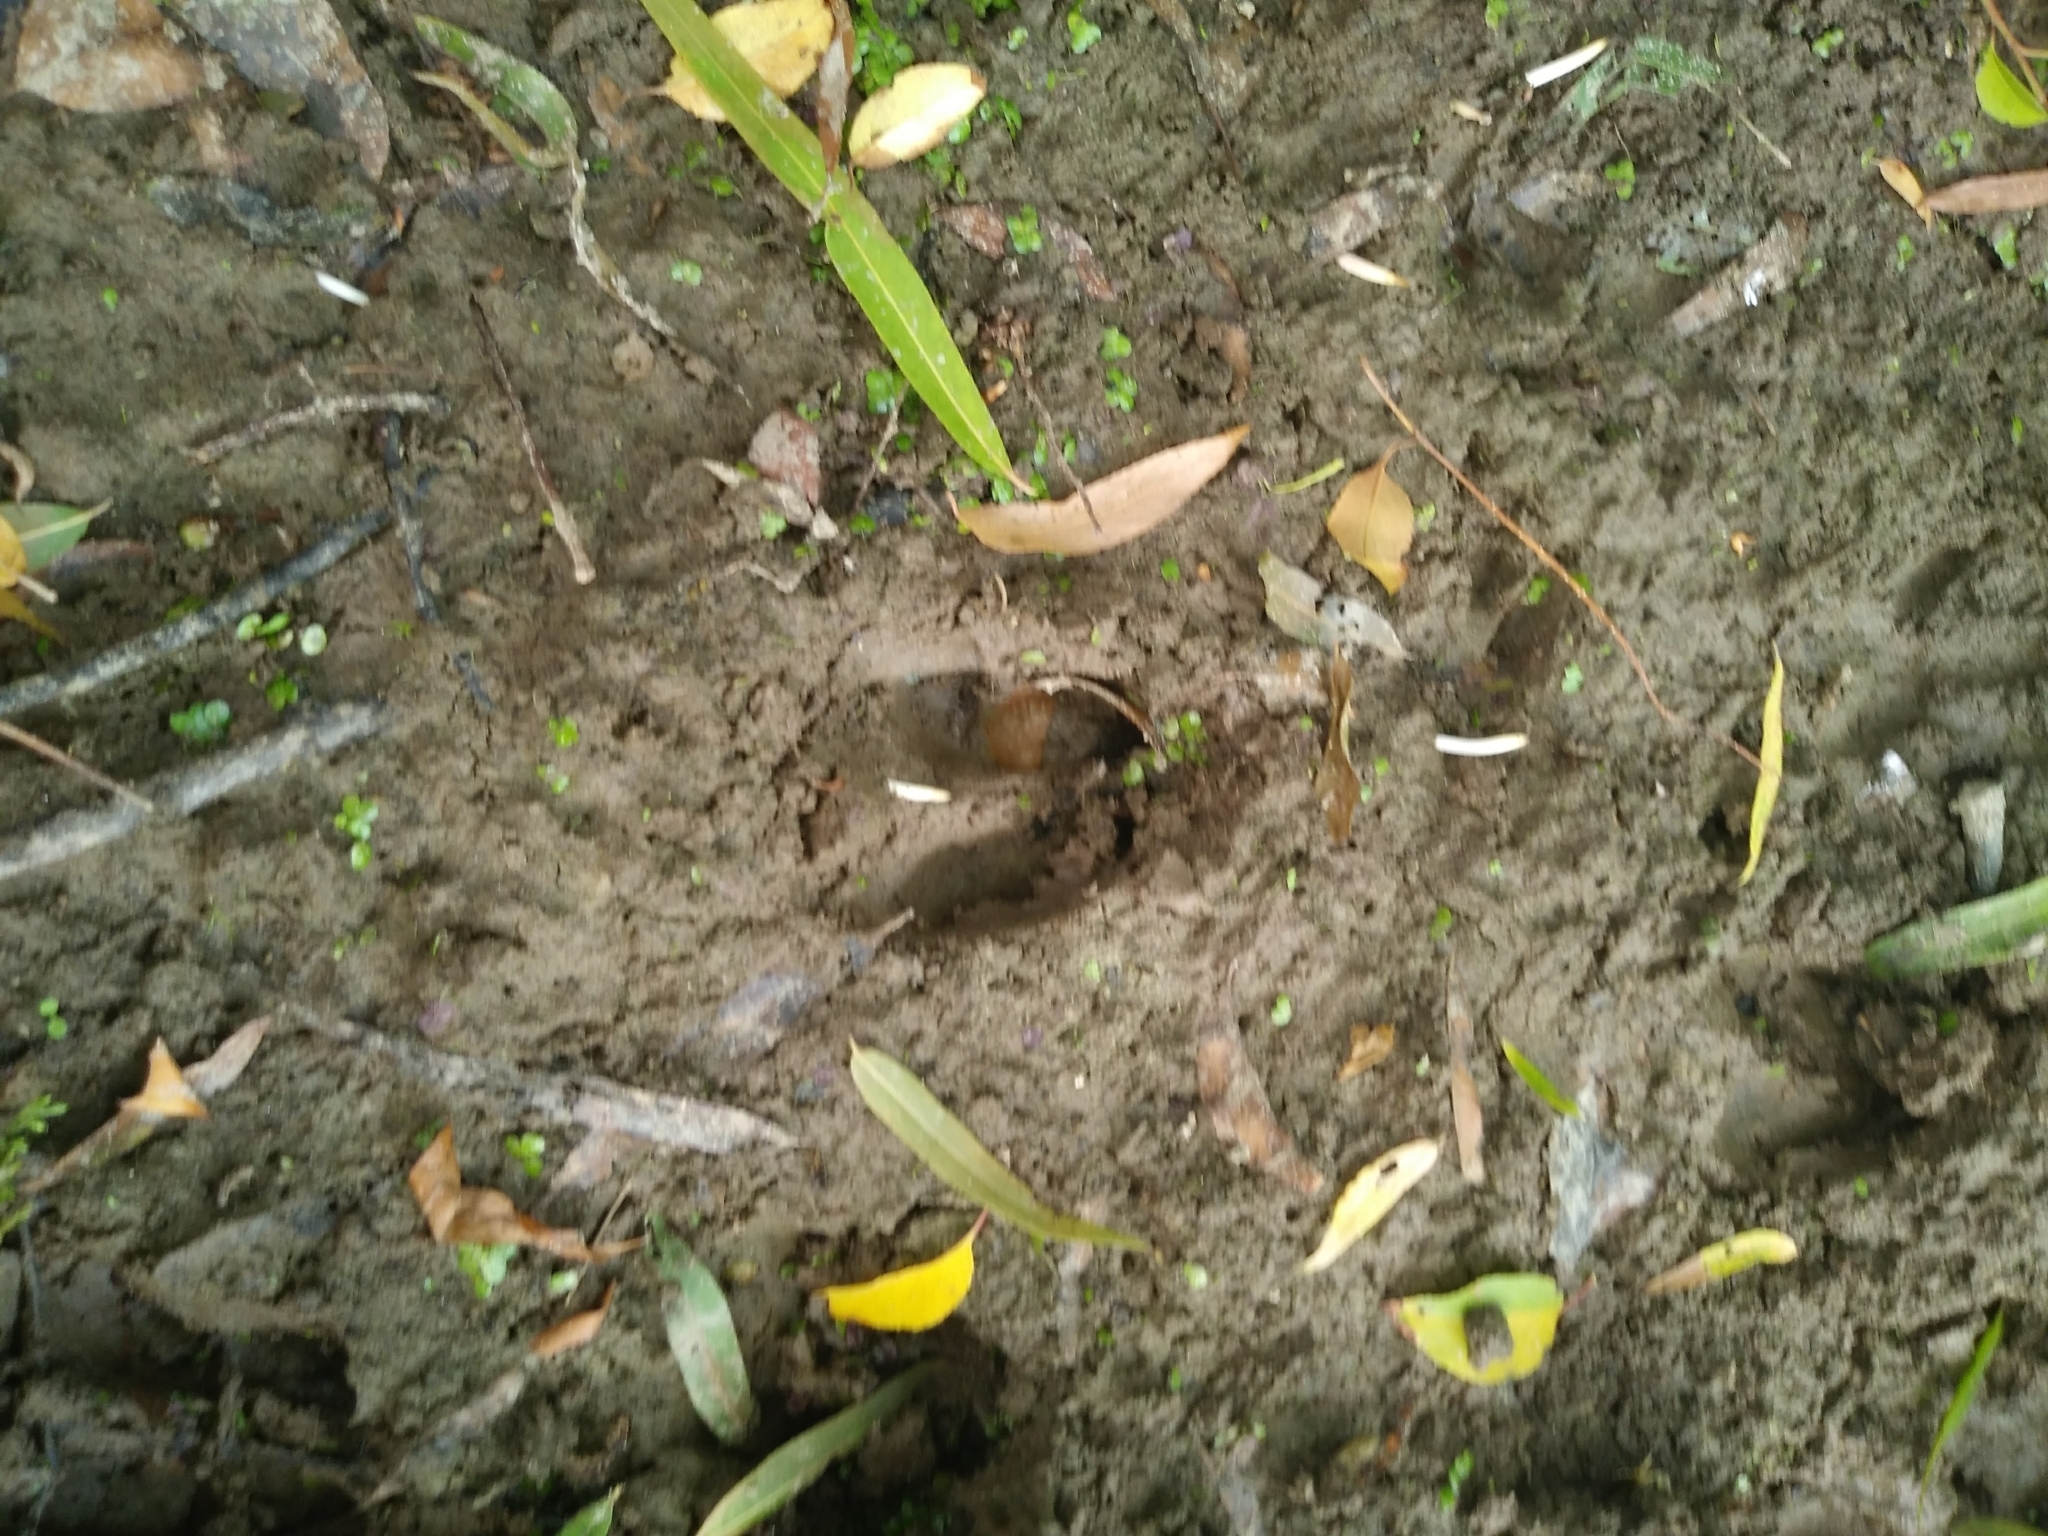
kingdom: Animalia
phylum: Chordata
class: Mammalia
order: Artiodactyla
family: Cervidae
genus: Odocoileus
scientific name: Odocoileus virginianus
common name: White-tailed deer
